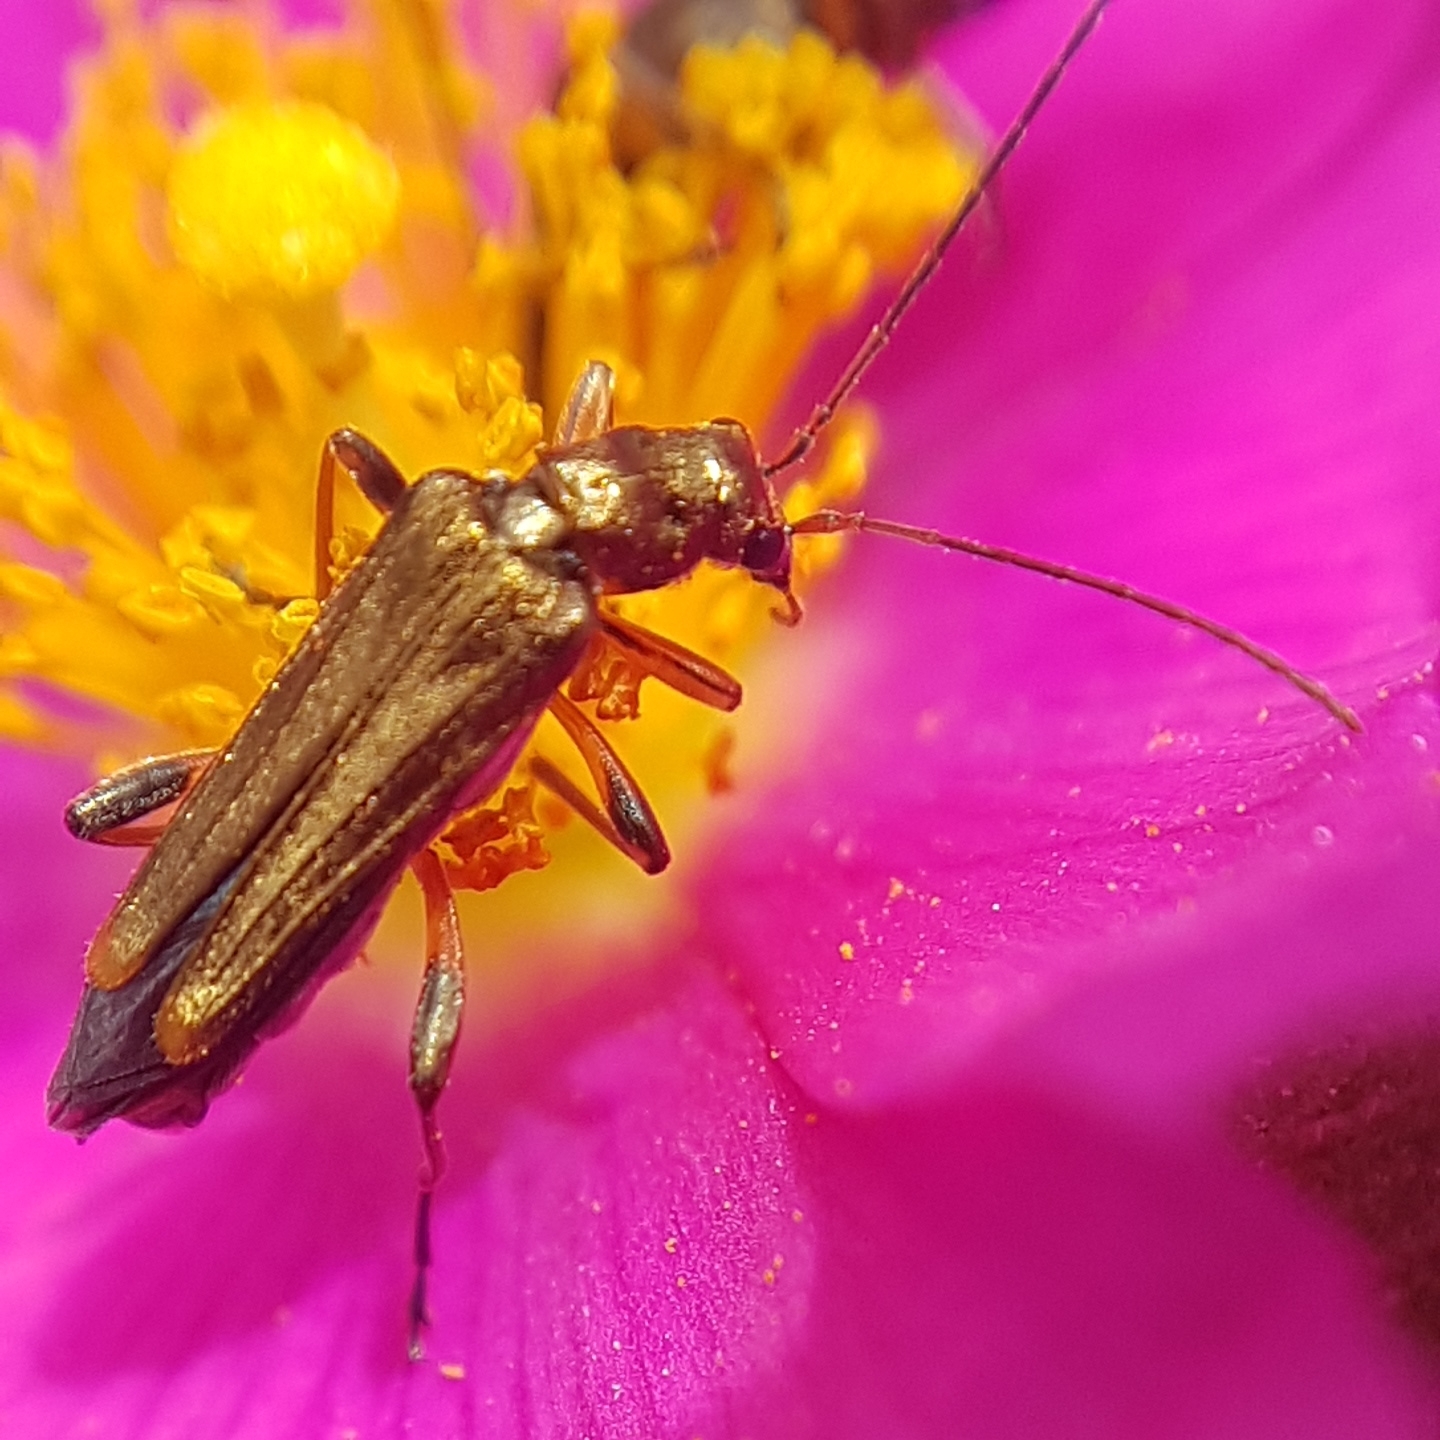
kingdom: Animalia
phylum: Arthropoda
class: Insecta
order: Coleoptera
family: Oedemeridae
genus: Oedemera
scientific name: Oedemera barbara
